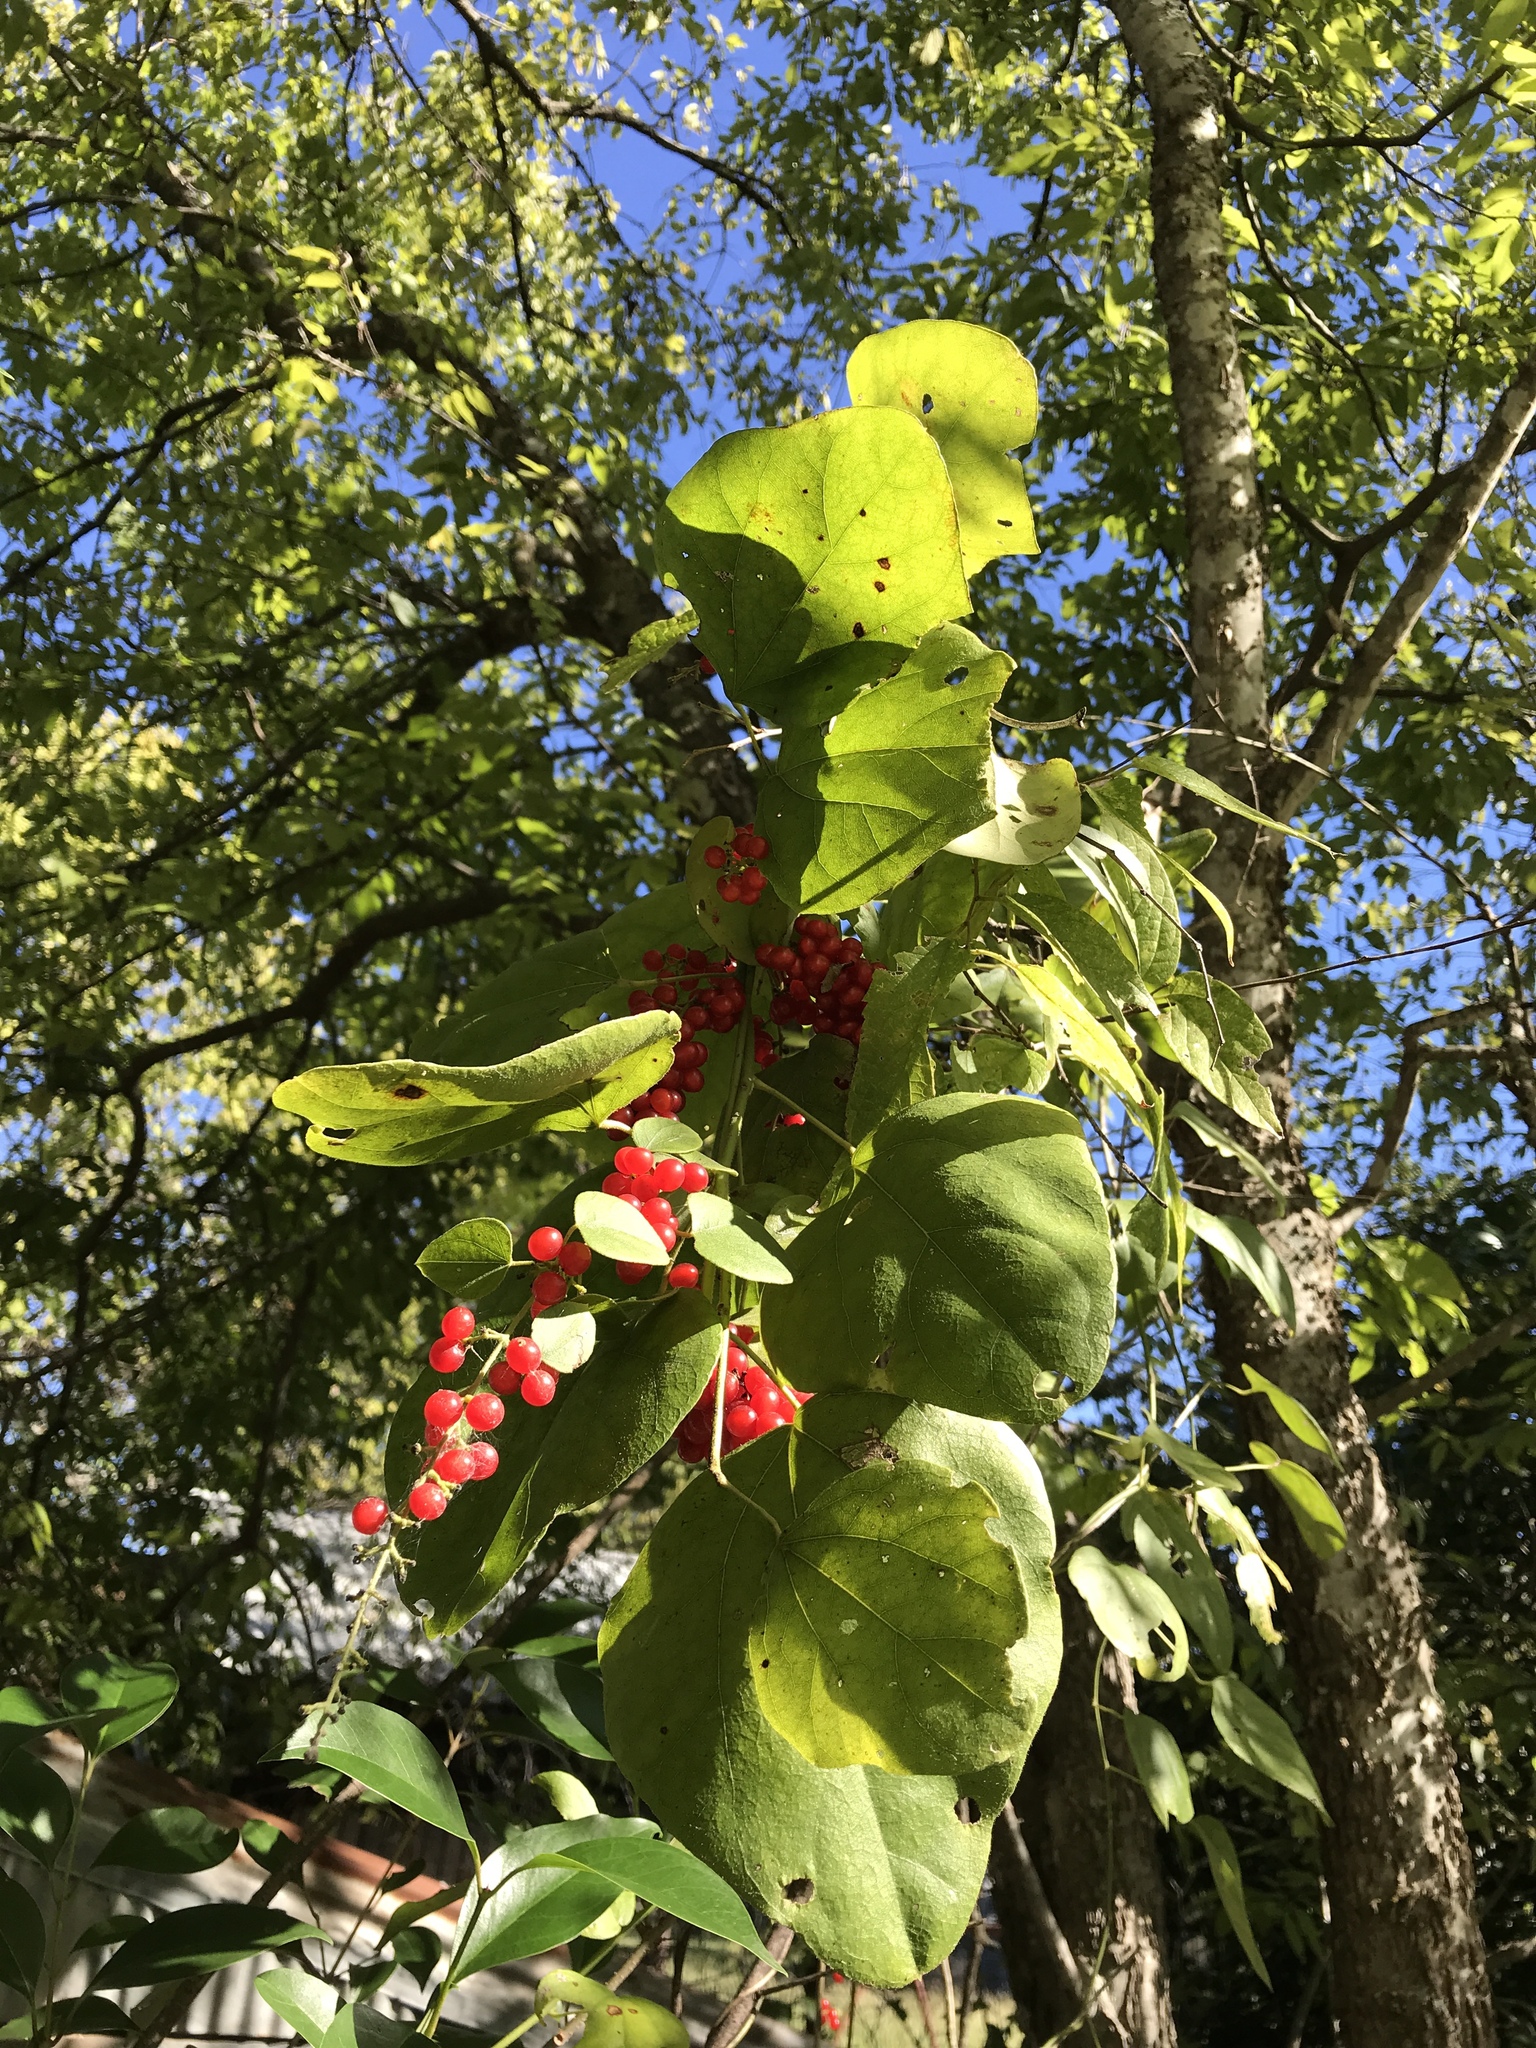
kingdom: Plantae
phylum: Tracheophyta
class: Magnoliopsida
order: Ranunculales
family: Menispermaceae
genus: Cocculus
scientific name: Cocculus carolinus
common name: Carolina moonseed
